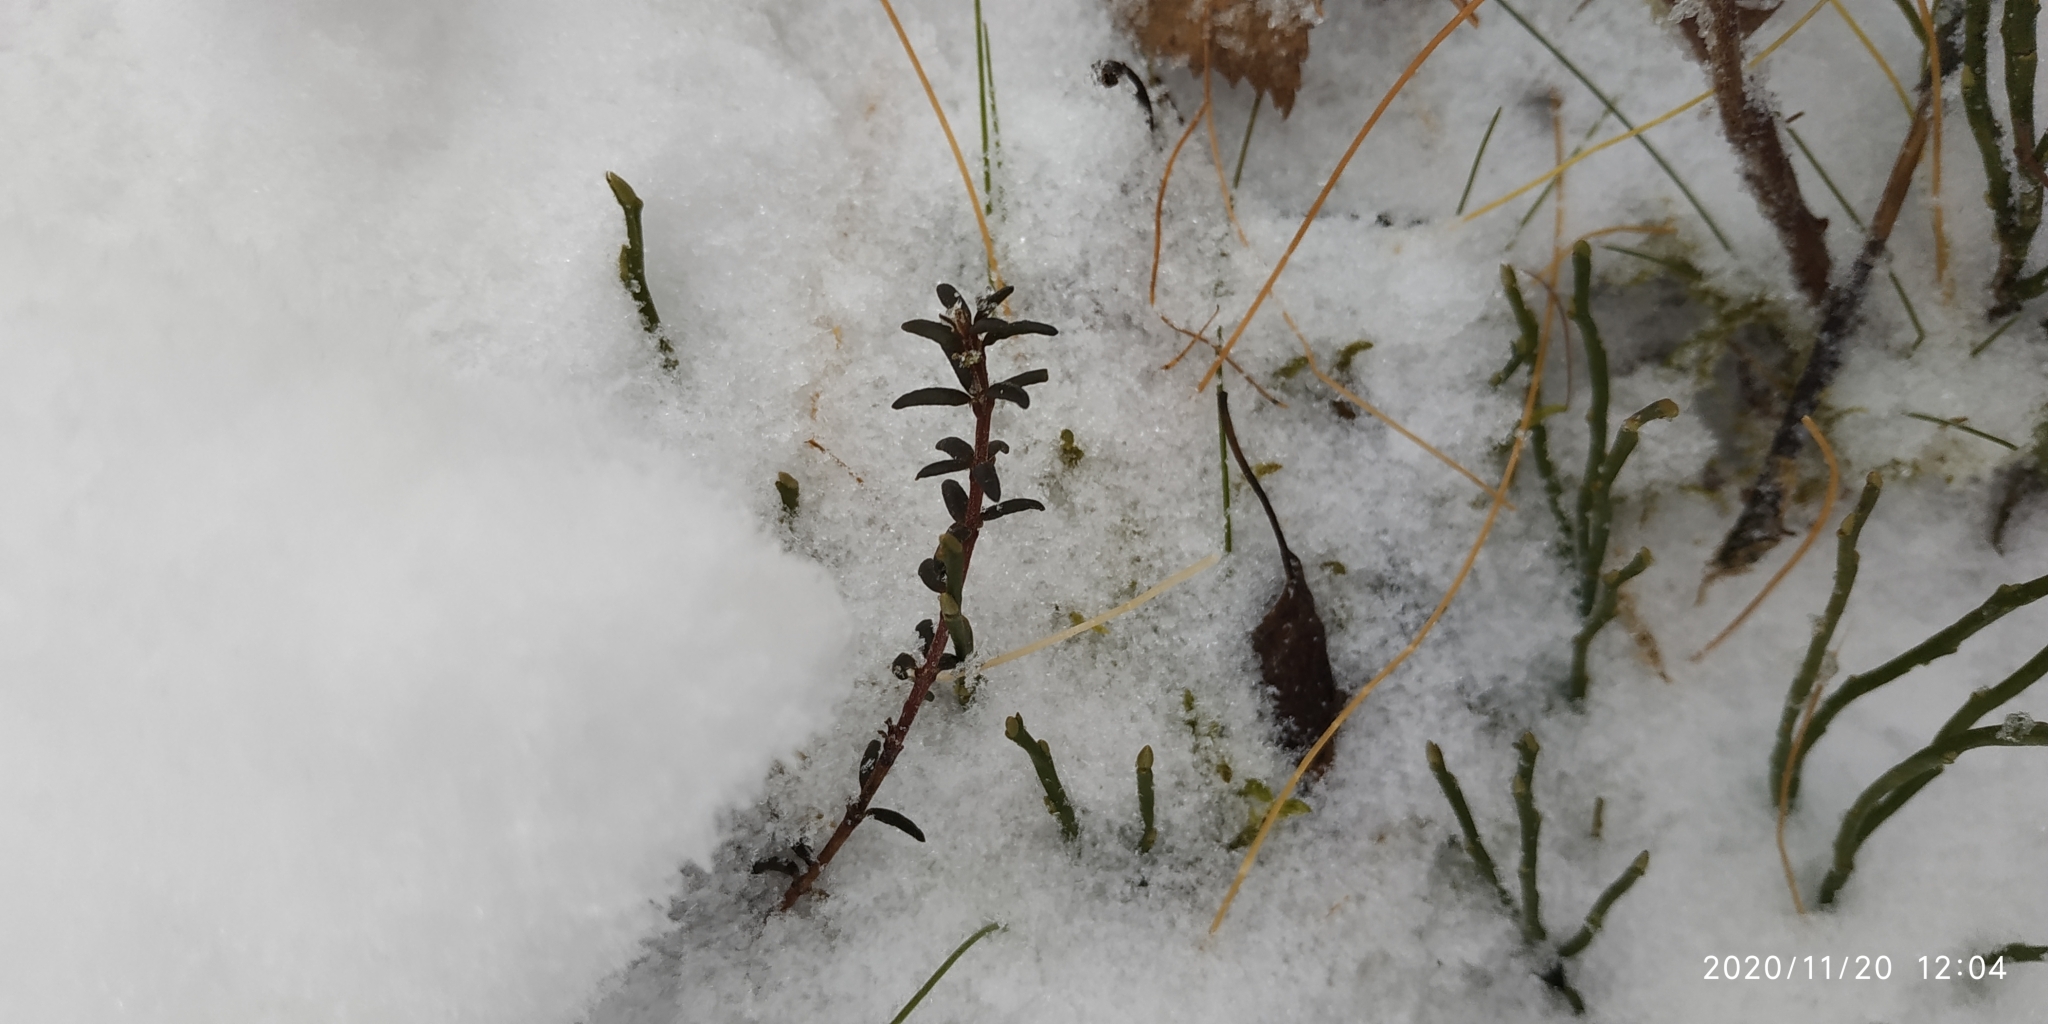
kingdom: Plantae
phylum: Tracheophyta
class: Magnoliopsida
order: Ericales
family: Ericaceae
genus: Empetrum
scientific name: Empetrum nigrum
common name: Black crowberry
